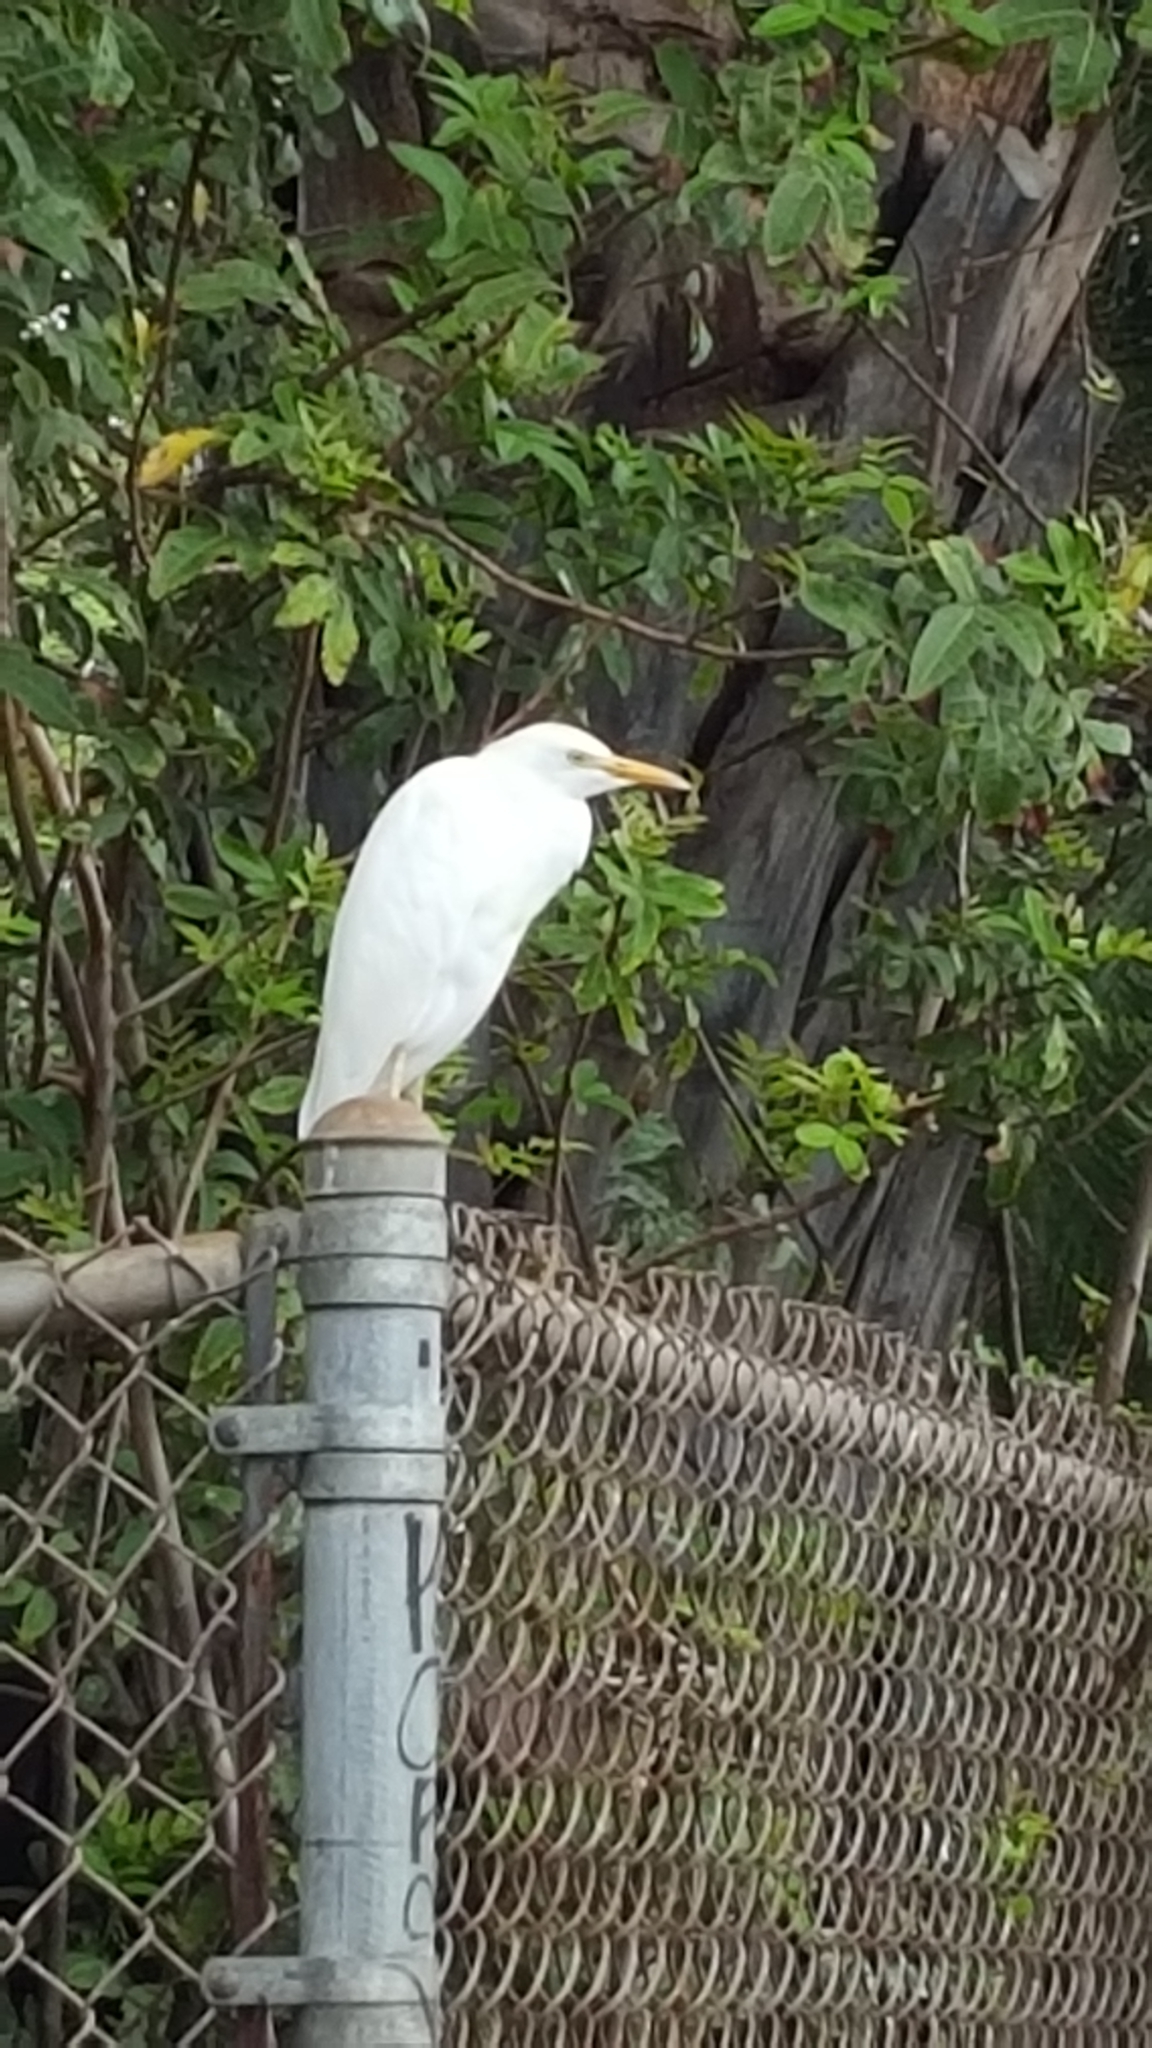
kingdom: Animalia
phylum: Chordata
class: Aves
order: Pelecaniformes
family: Ardeidae
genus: Bubulcus
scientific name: Bubulcus ibis
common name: Cattle egret
